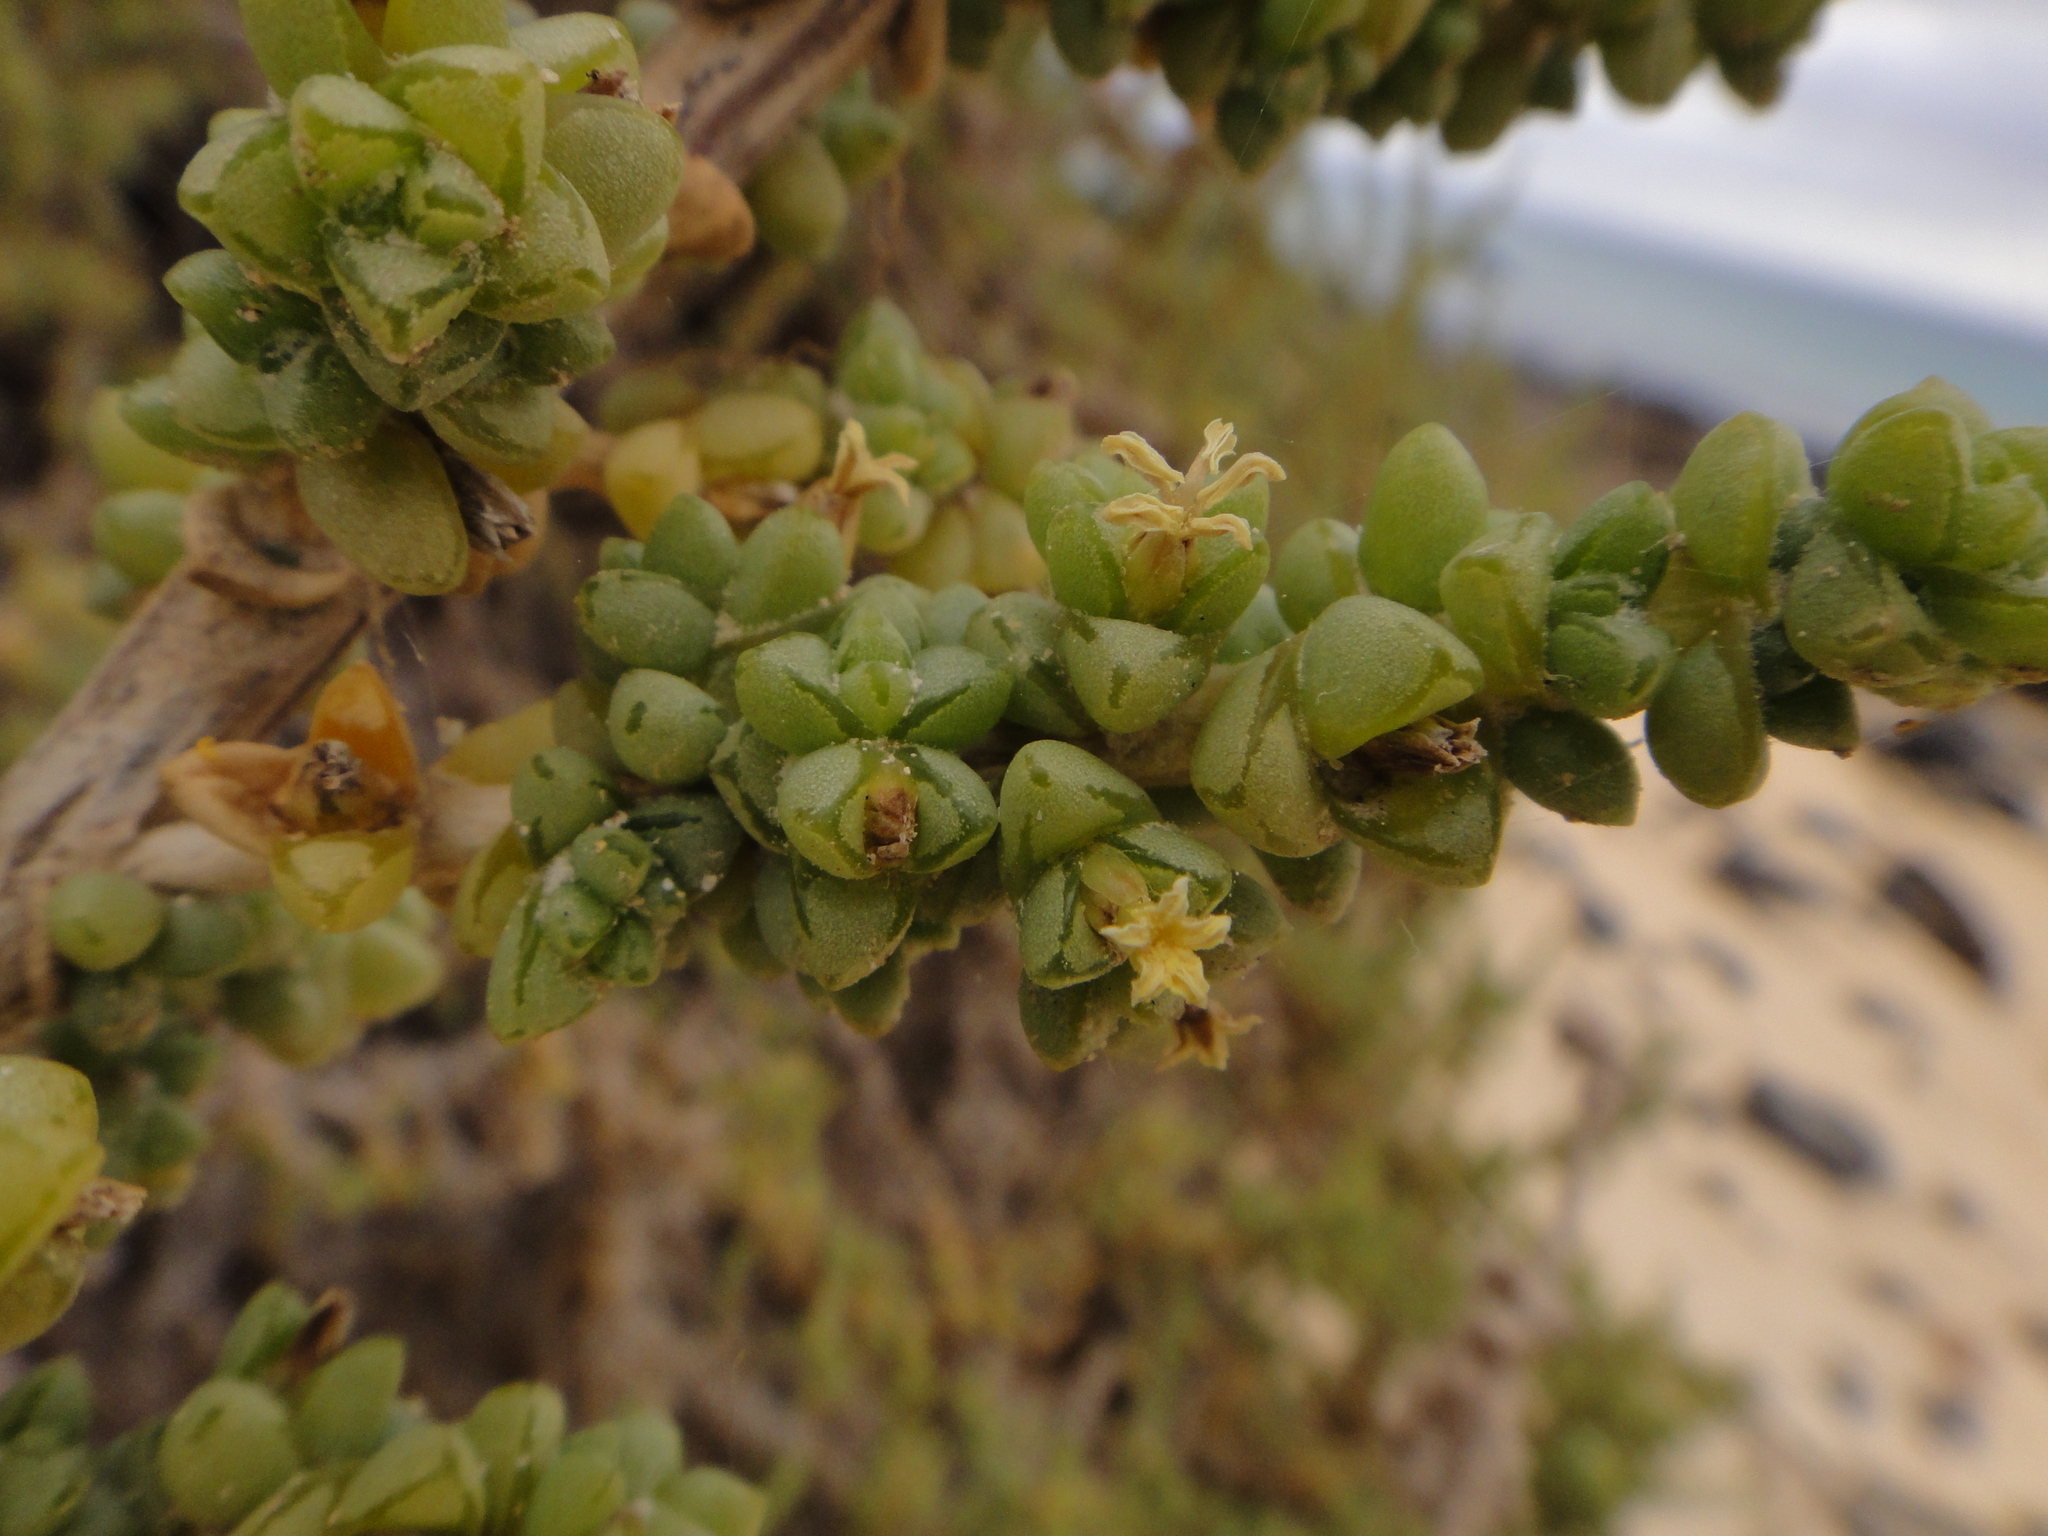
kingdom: Plantae
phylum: Tracheophyta
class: Magnoliopsida
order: Caryophyllales
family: Amaranthaceae
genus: Traganum
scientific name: Traganum moquinii
